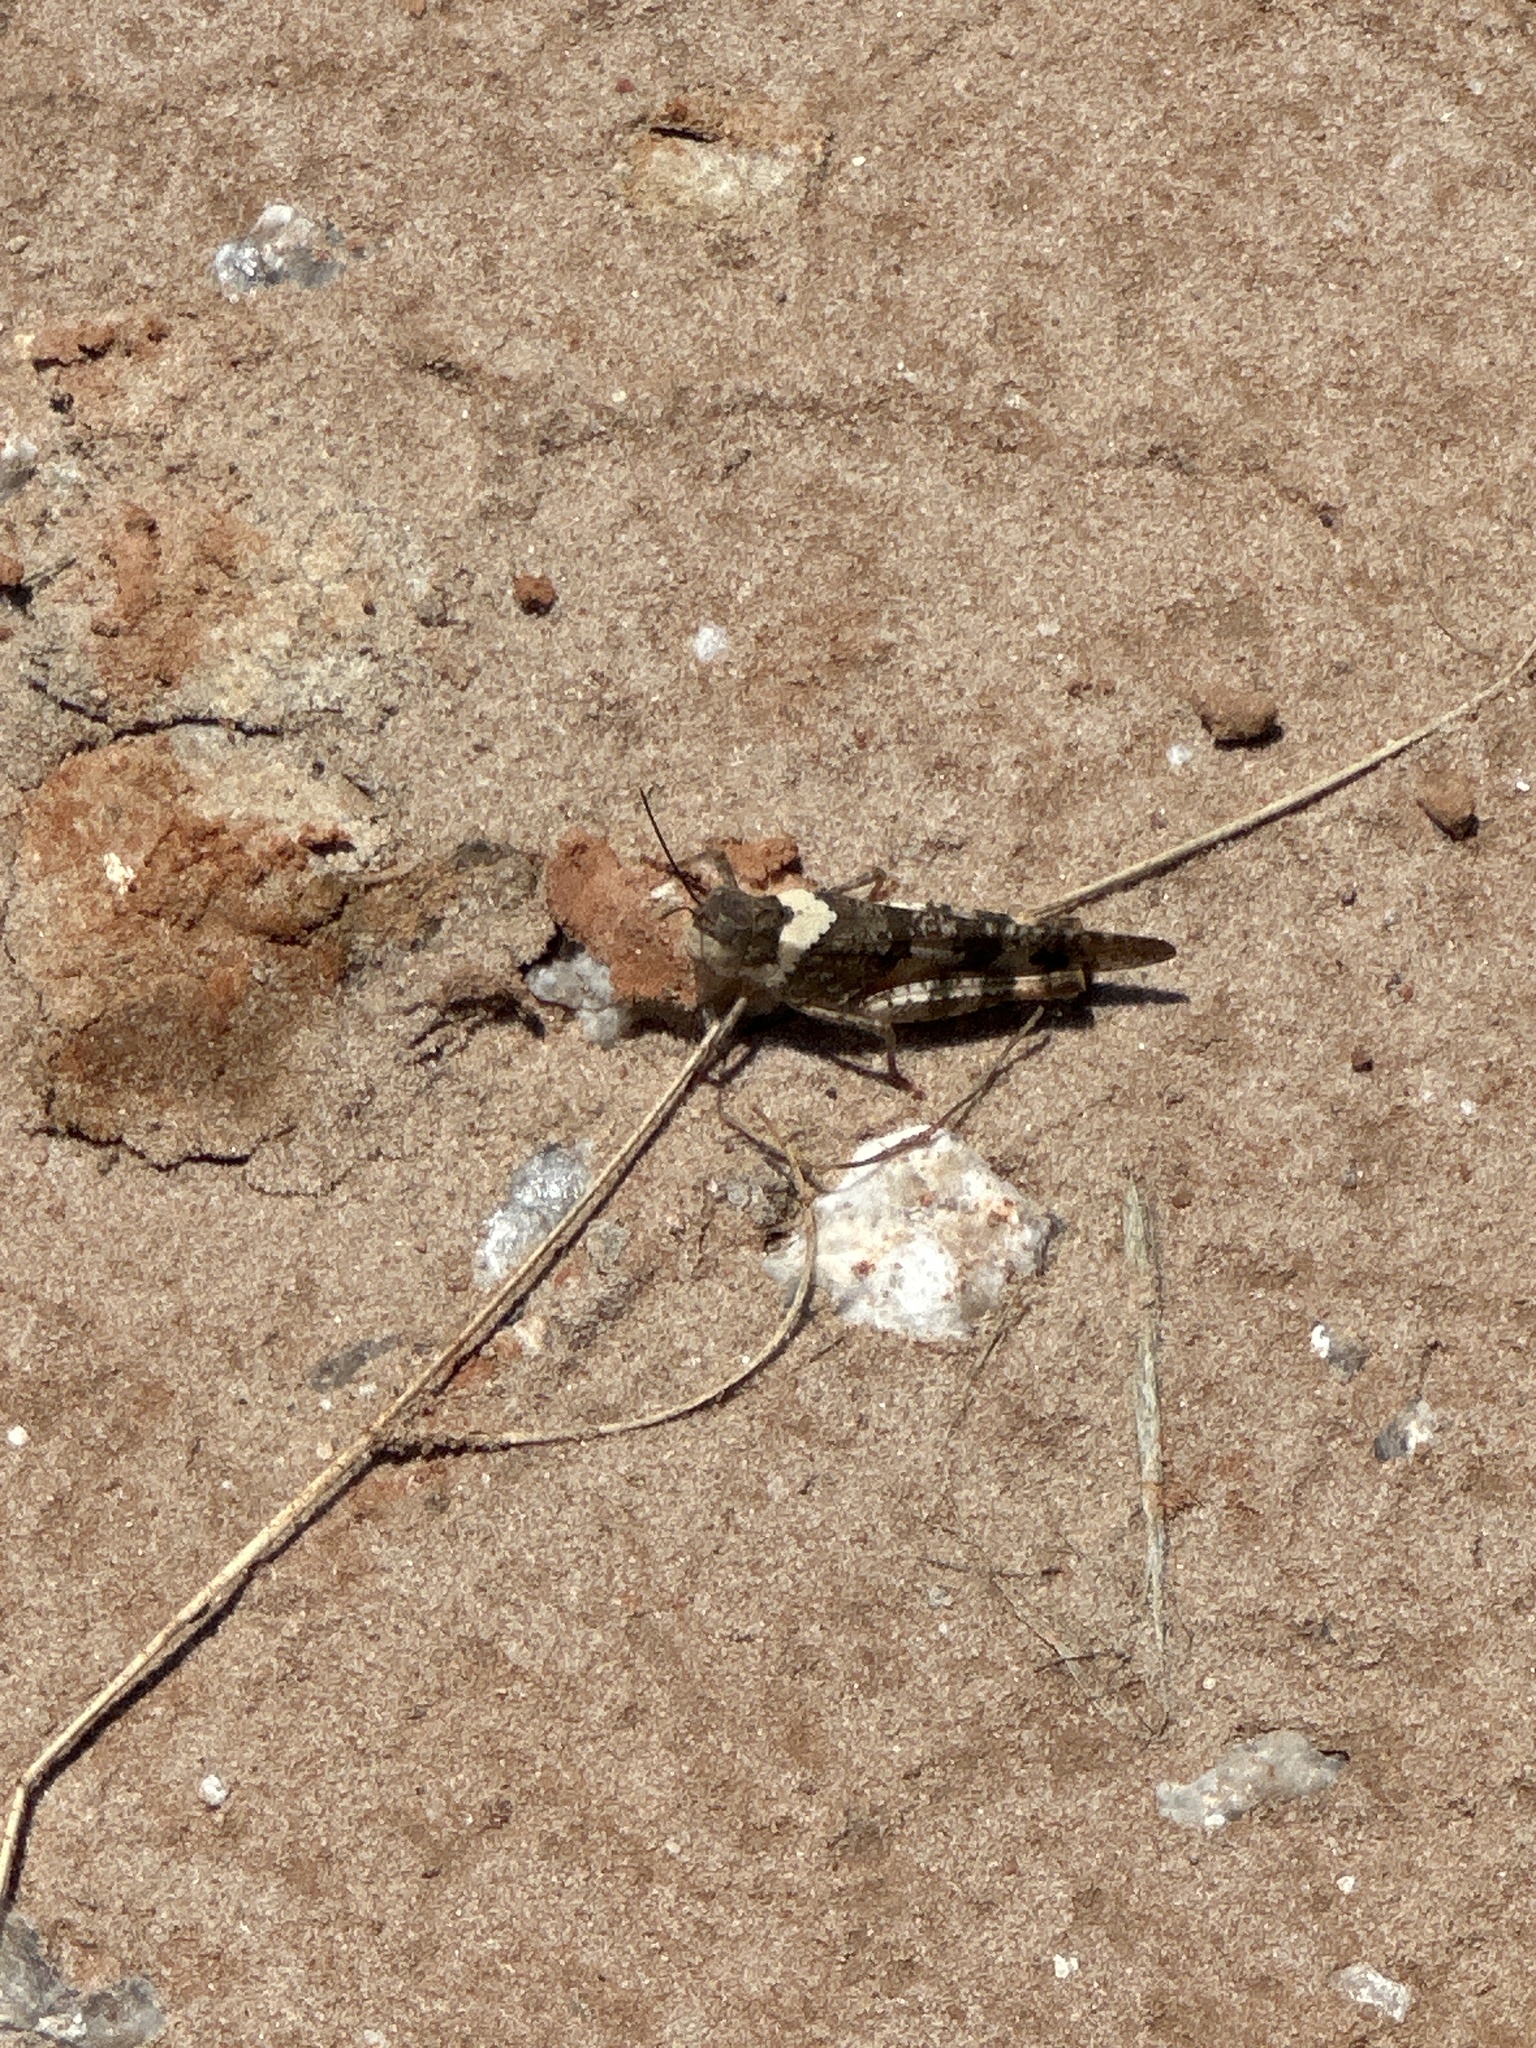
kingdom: Animalia
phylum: Arthropoda
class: Insecta
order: Orthoptera
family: Acrididae
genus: Spharagemon
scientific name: Spharagemon equale
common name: Orange-legged grasshopper
